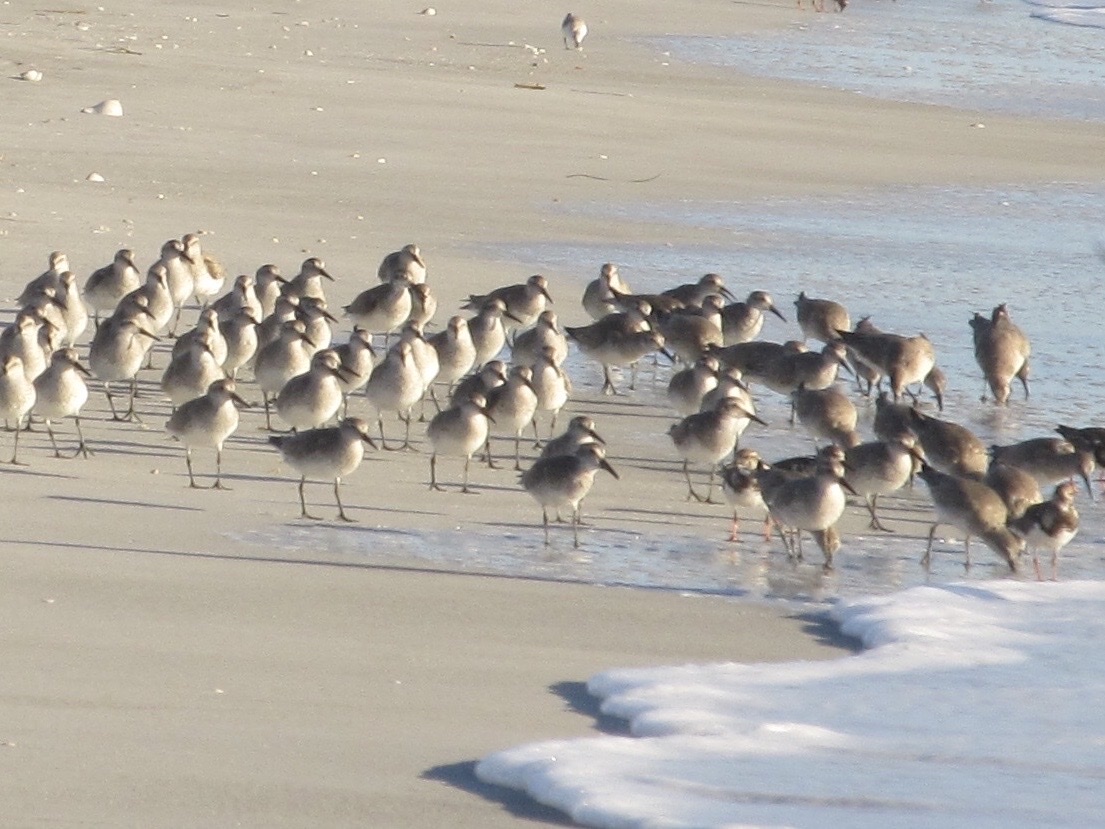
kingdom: Animalia
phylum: Chordata
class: Aves
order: Charadriiformes
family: Scolopacidae
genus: Calidris
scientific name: Calidris canutus
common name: Red knot
